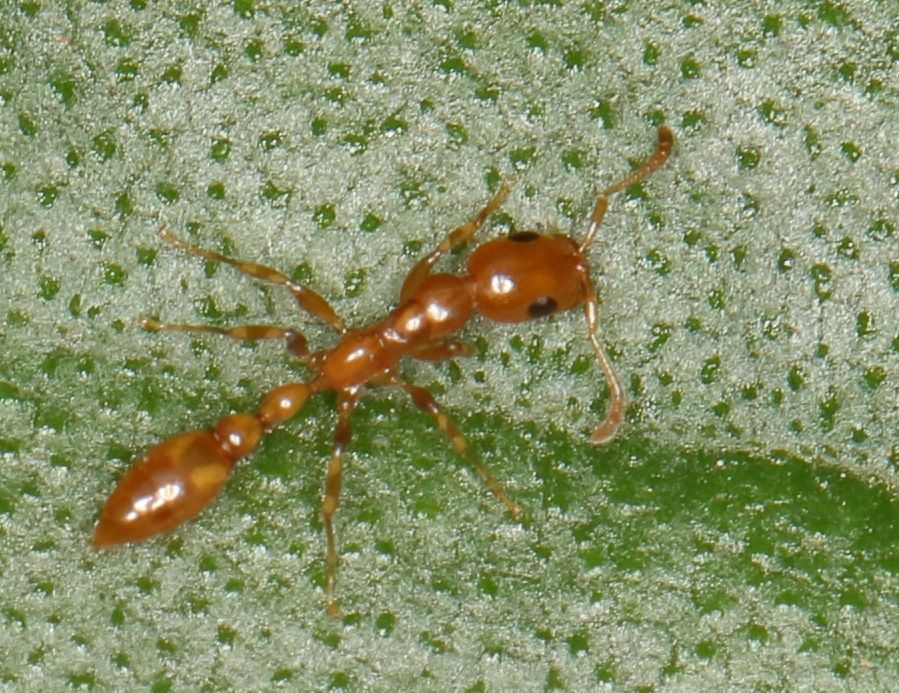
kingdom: Animalia
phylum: Arthropoda
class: Insecta
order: Hymenoptera
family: Formicidae
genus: Tetraponera
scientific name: Tetraponera emeryi
